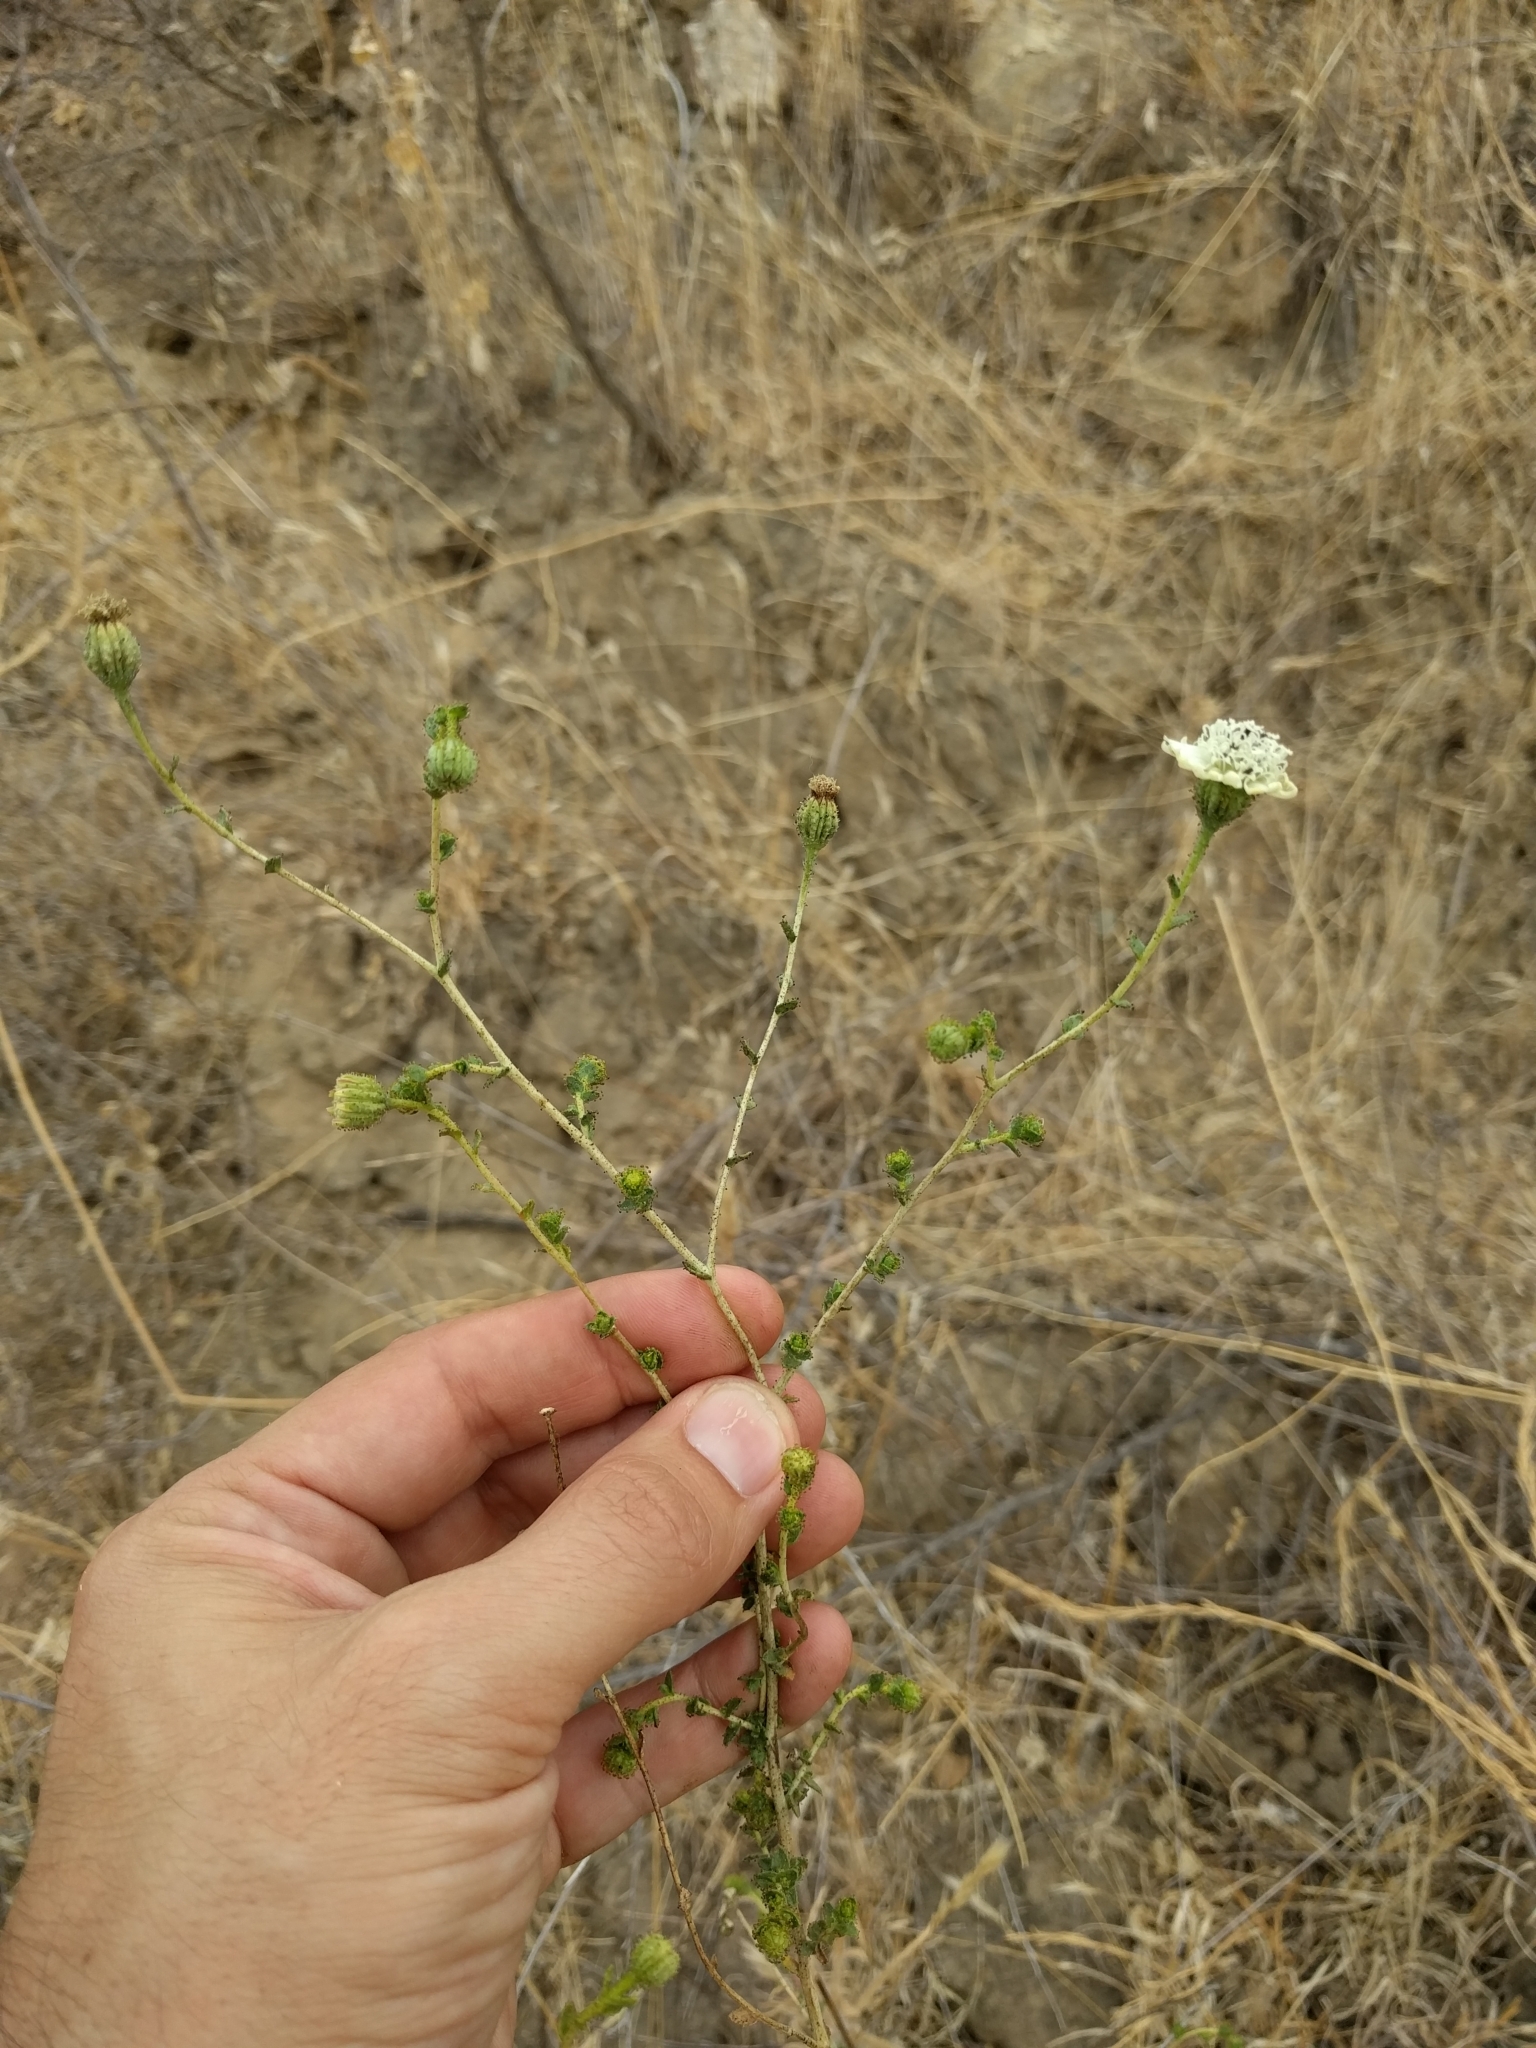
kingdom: Plantae
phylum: Tracheophyta
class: Magnoliopsida
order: Asterales
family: Asteraceae
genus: Blepharizonia
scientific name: Blepharizonia laxa
